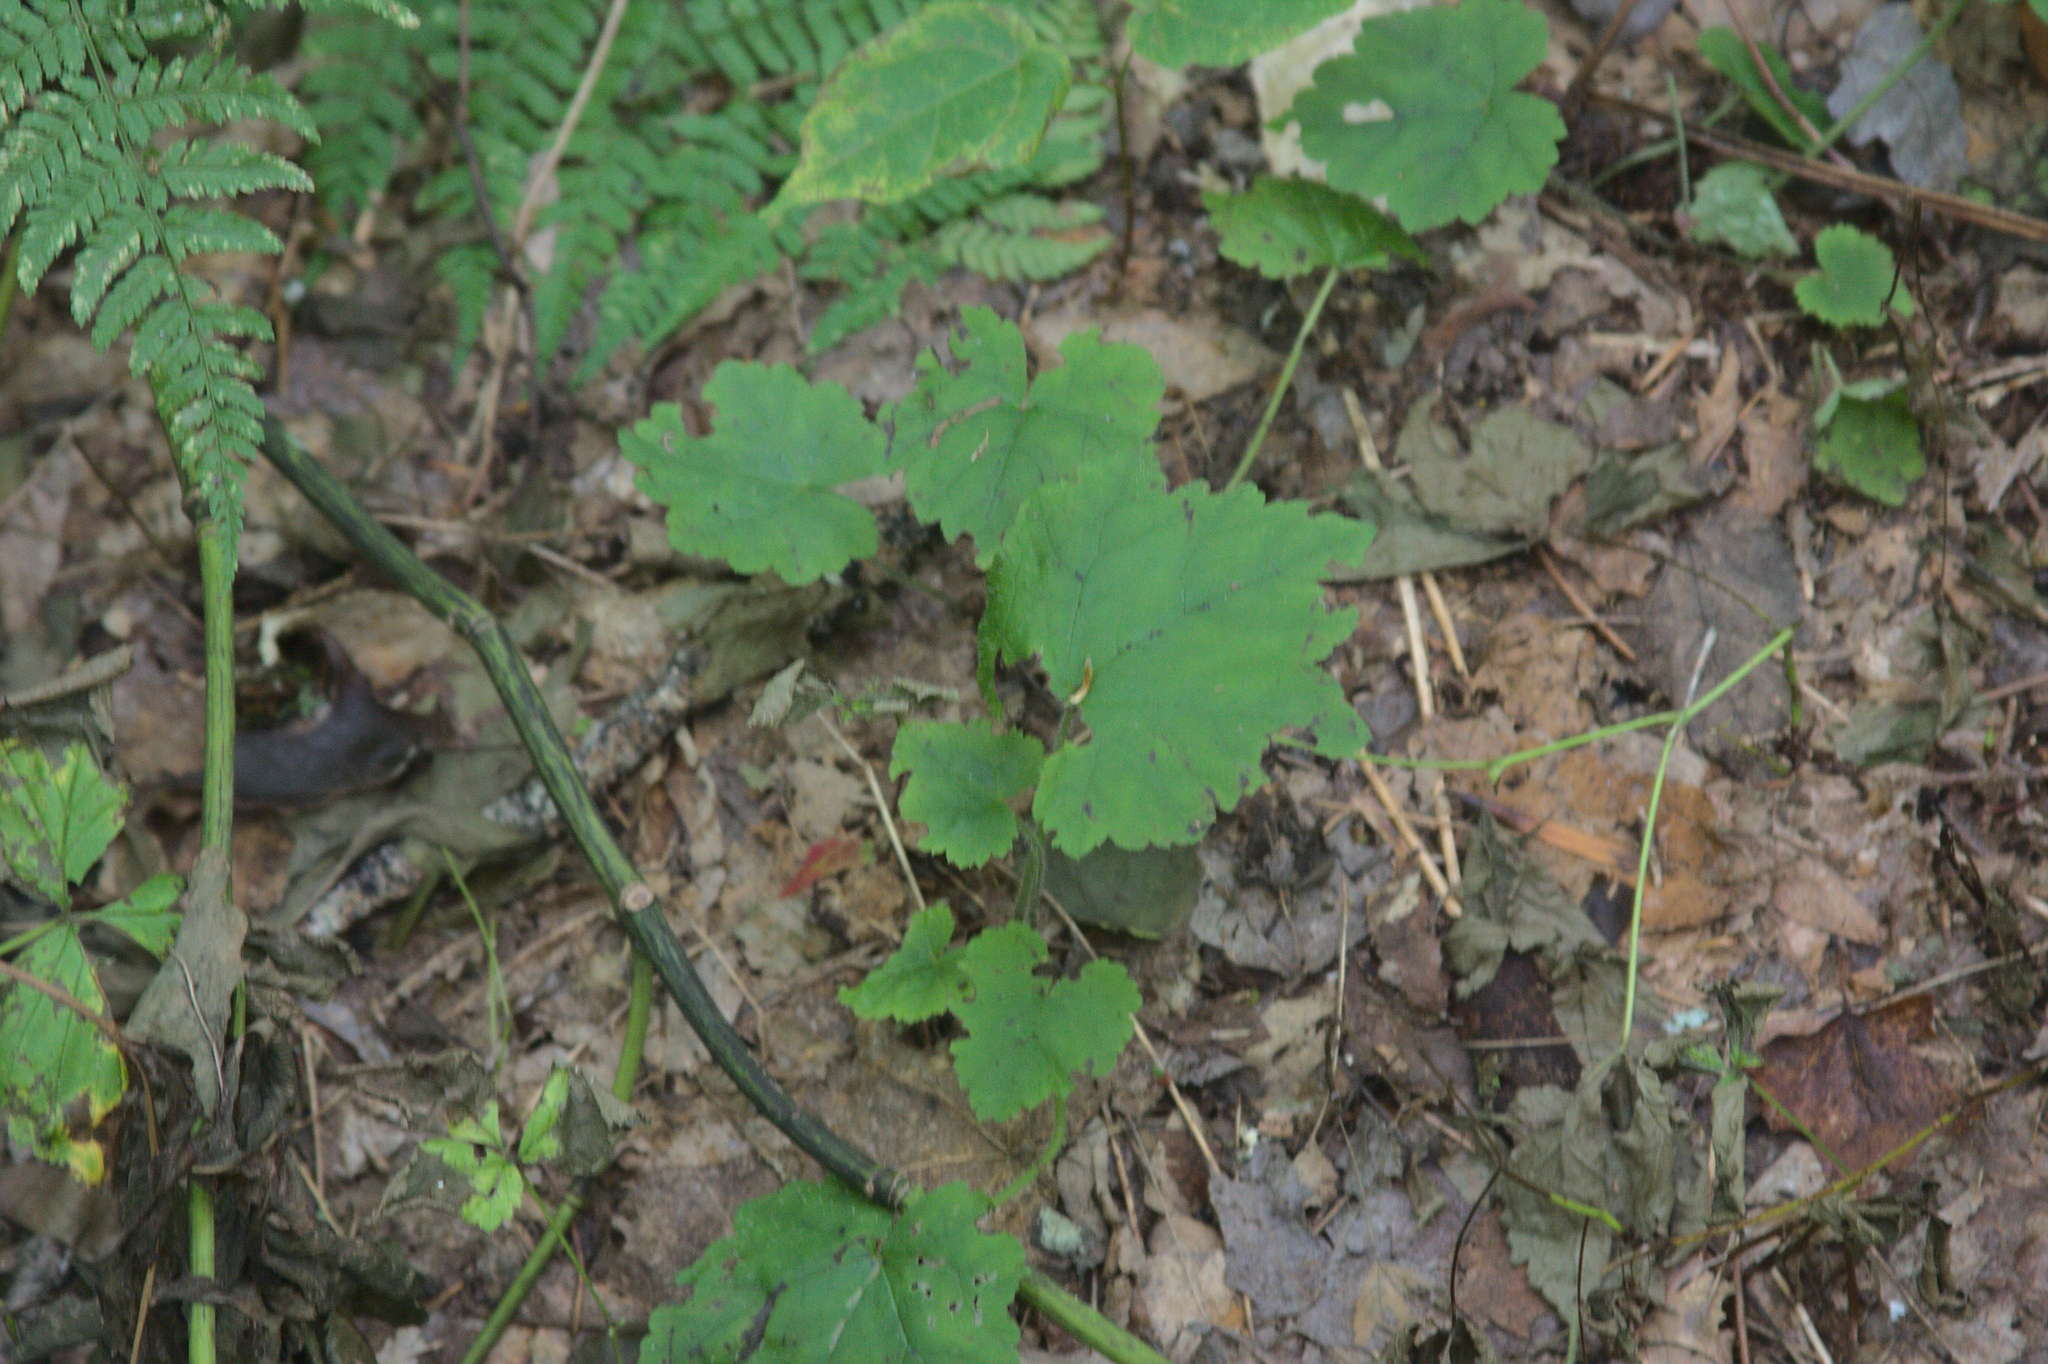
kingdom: Plantae
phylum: Tracheophyta
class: Magnoliopsida
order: Saxifragales
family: Saxifragaceae
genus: Tiarella
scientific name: Tiarella stolonifera
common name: Stoloniferous foamflower
